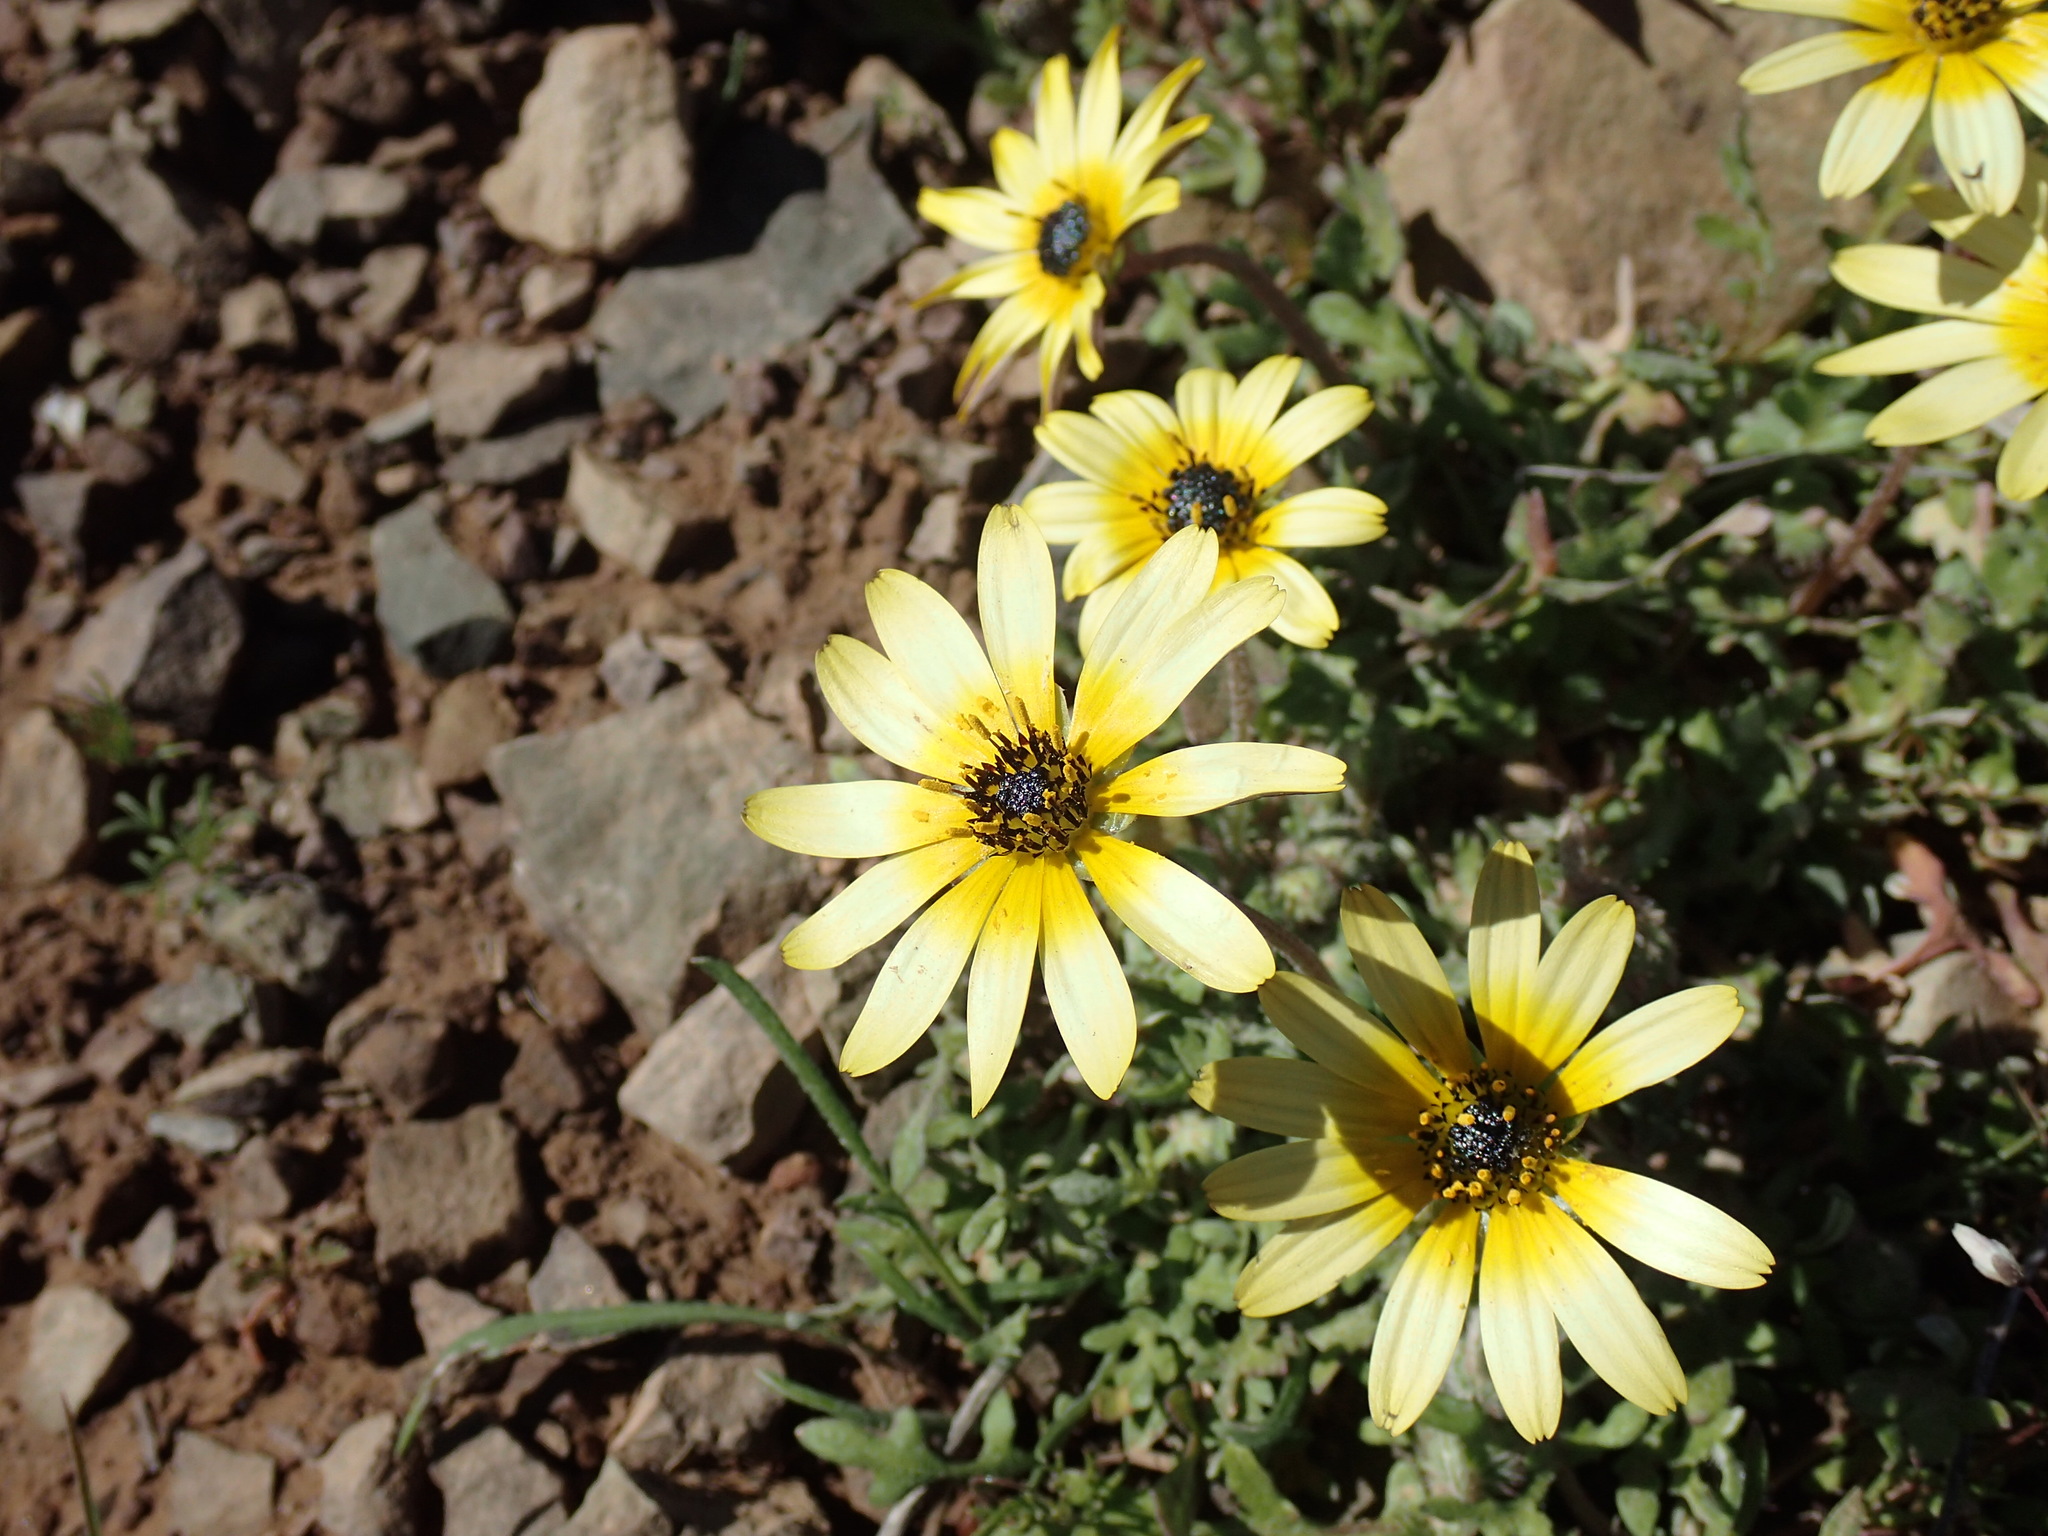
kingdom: Plantae
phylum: Tracheophyta
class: Magnoliopsida
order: Asterales
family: Asteraceae
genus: Arctotis
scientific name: Arctotis dregei
